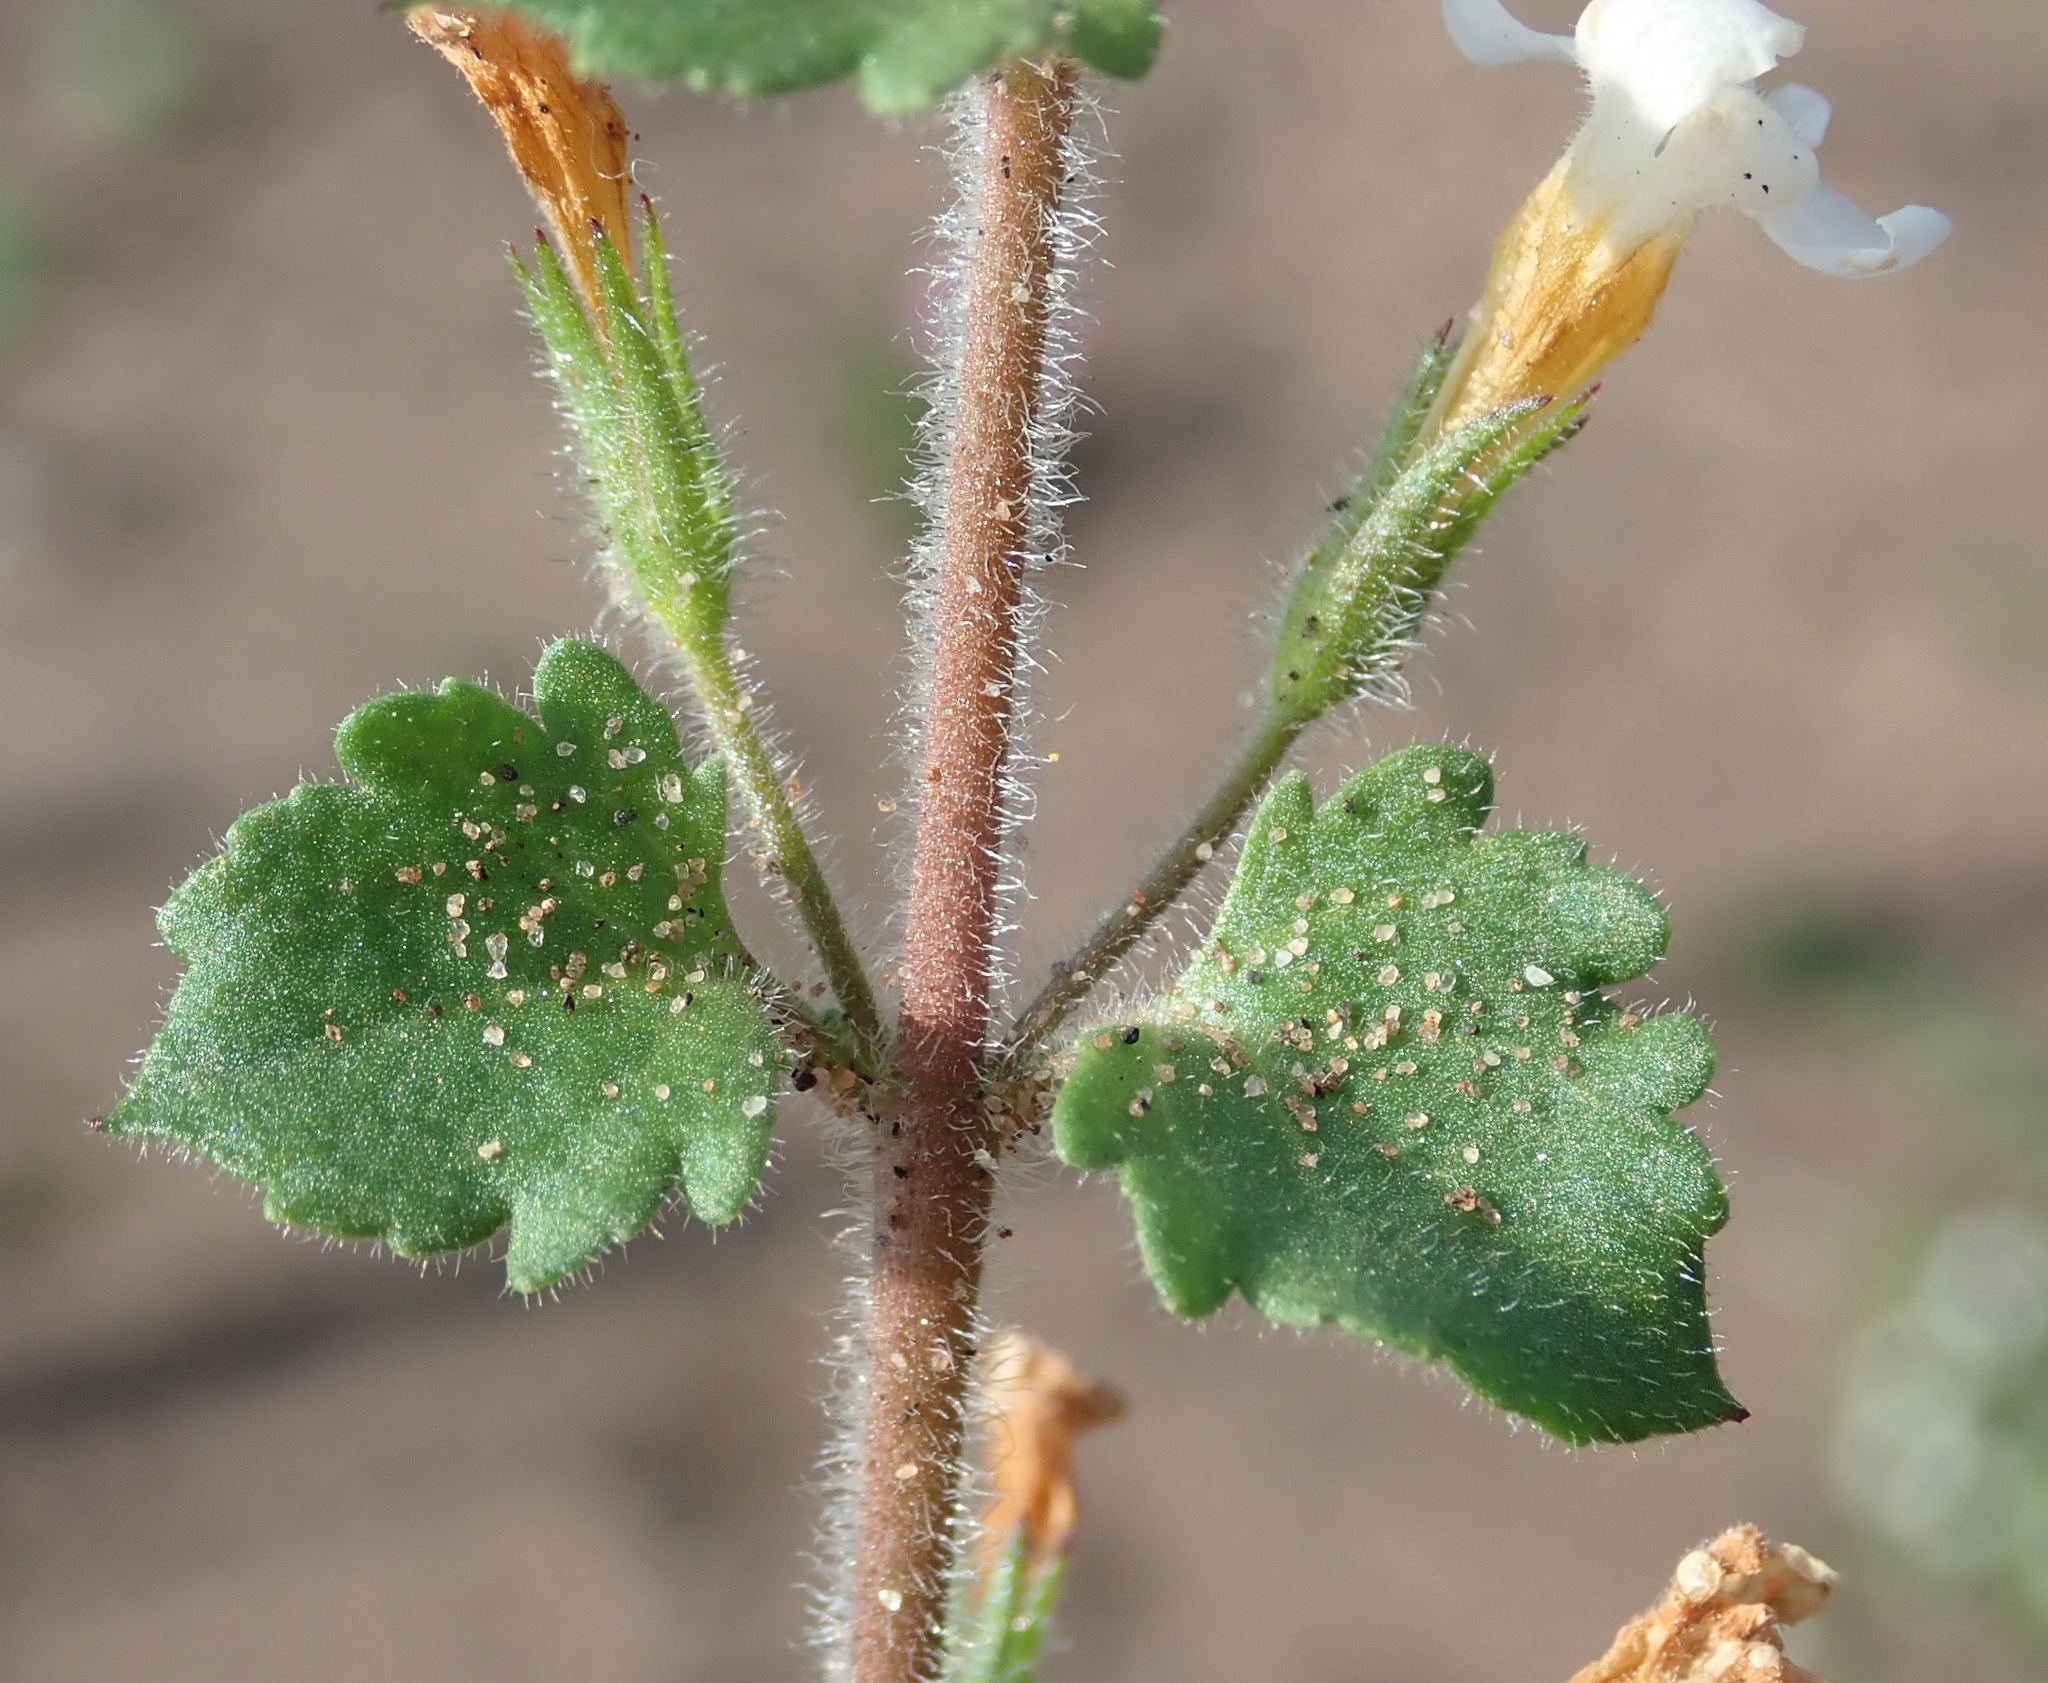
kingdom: Plantae
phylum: Tracheophyta
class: Magnoliopsida
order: Lamiales
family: Scrophulariaceae
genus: Chaenostoma
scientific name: Chaenostoma campanulatum
